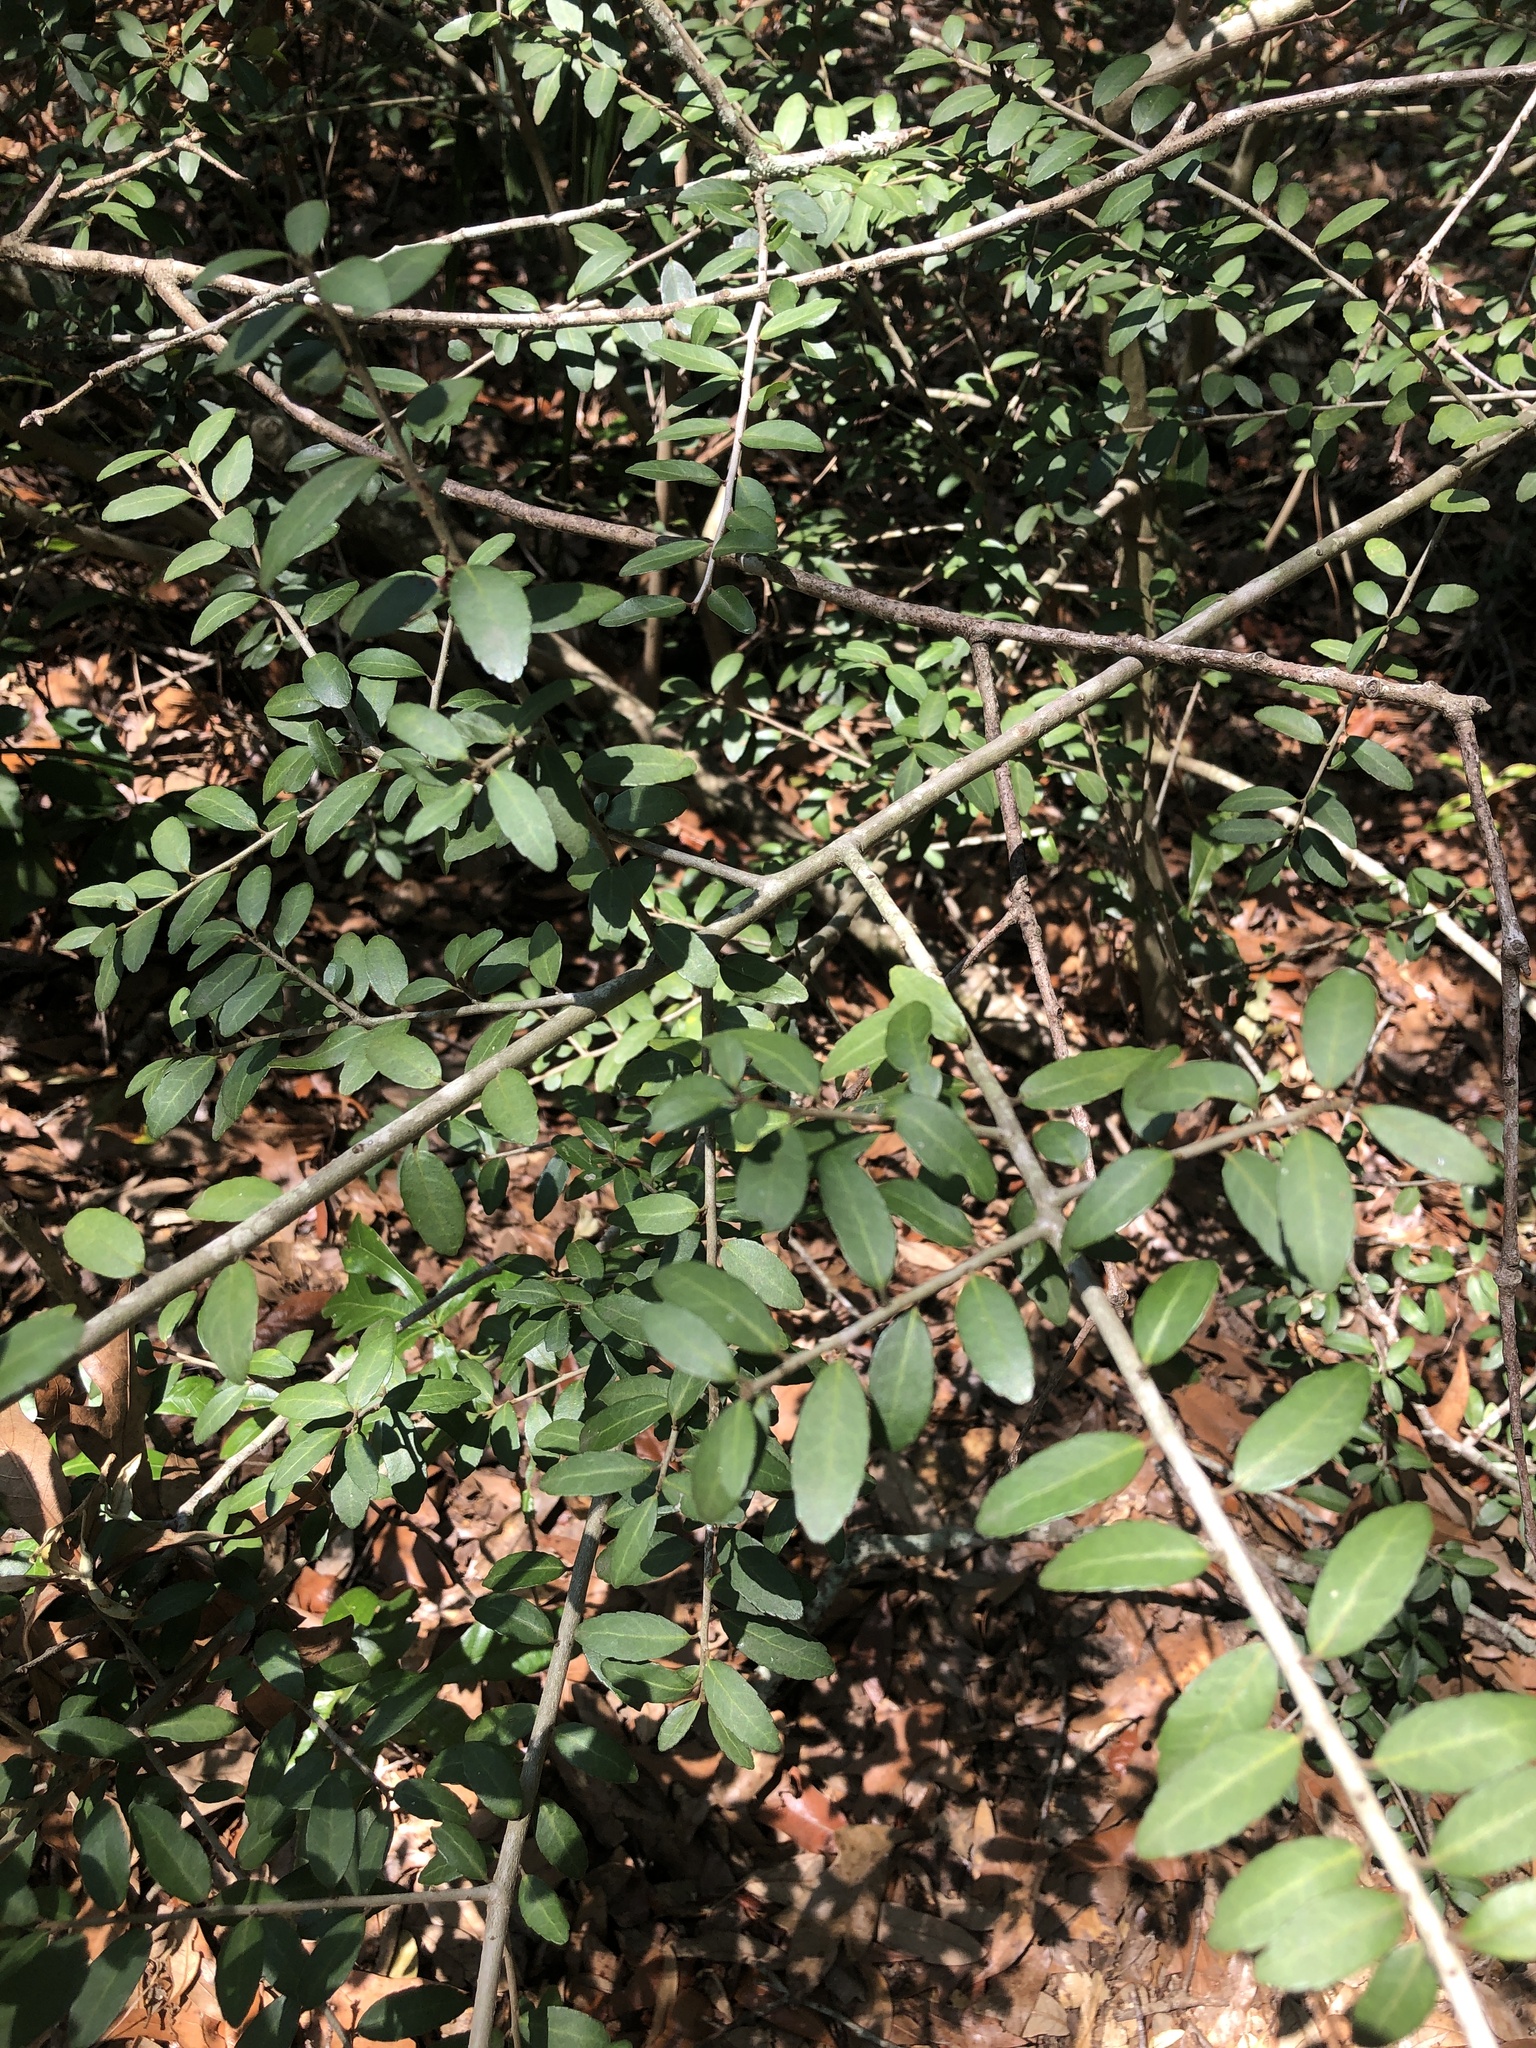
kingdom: Plantae
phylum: Tracheophyta
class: Magnoliopsida
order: Aquifoliales
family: Aquifoliaceae
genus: Ilex
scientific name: Ilex vomitoria
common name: Yaupon holly
